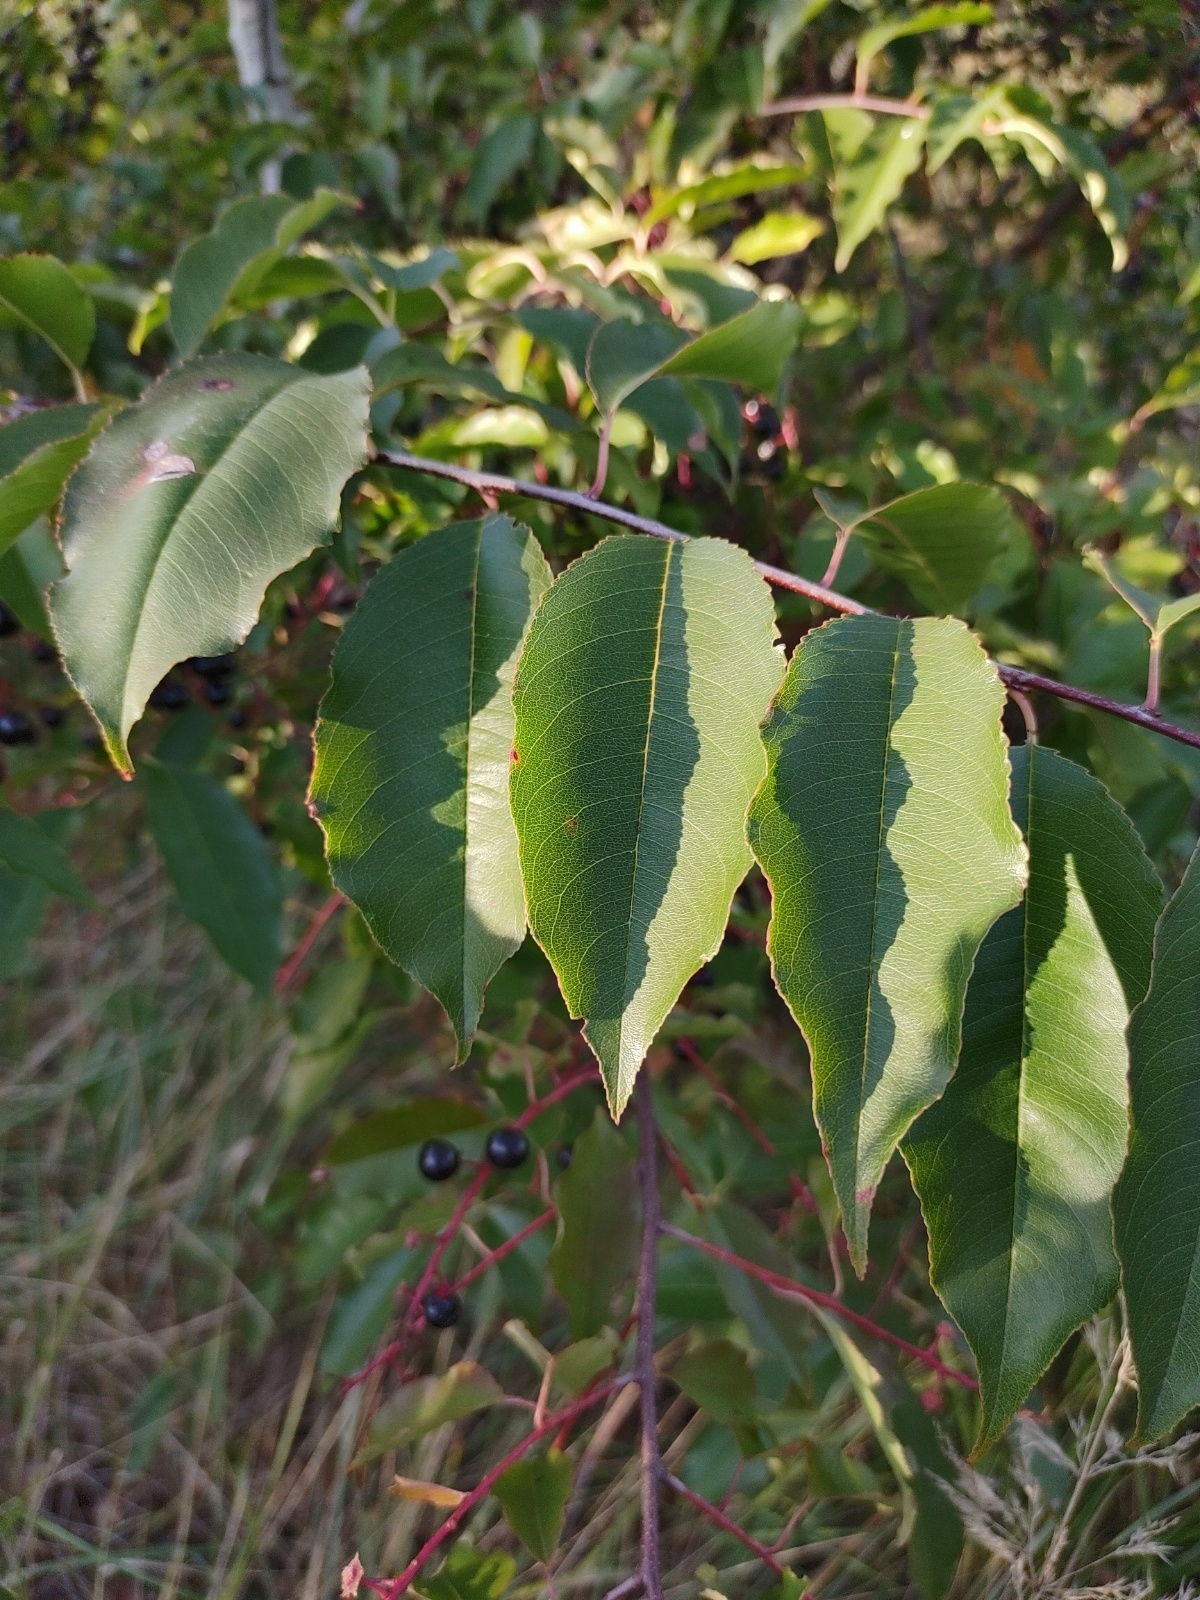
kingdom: Plantae
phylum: Tracheophyta
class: Magnoliopsida
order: Rosales
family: Rosaceae
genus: Prunus
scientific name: Prunus serotina
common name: Black cherry
